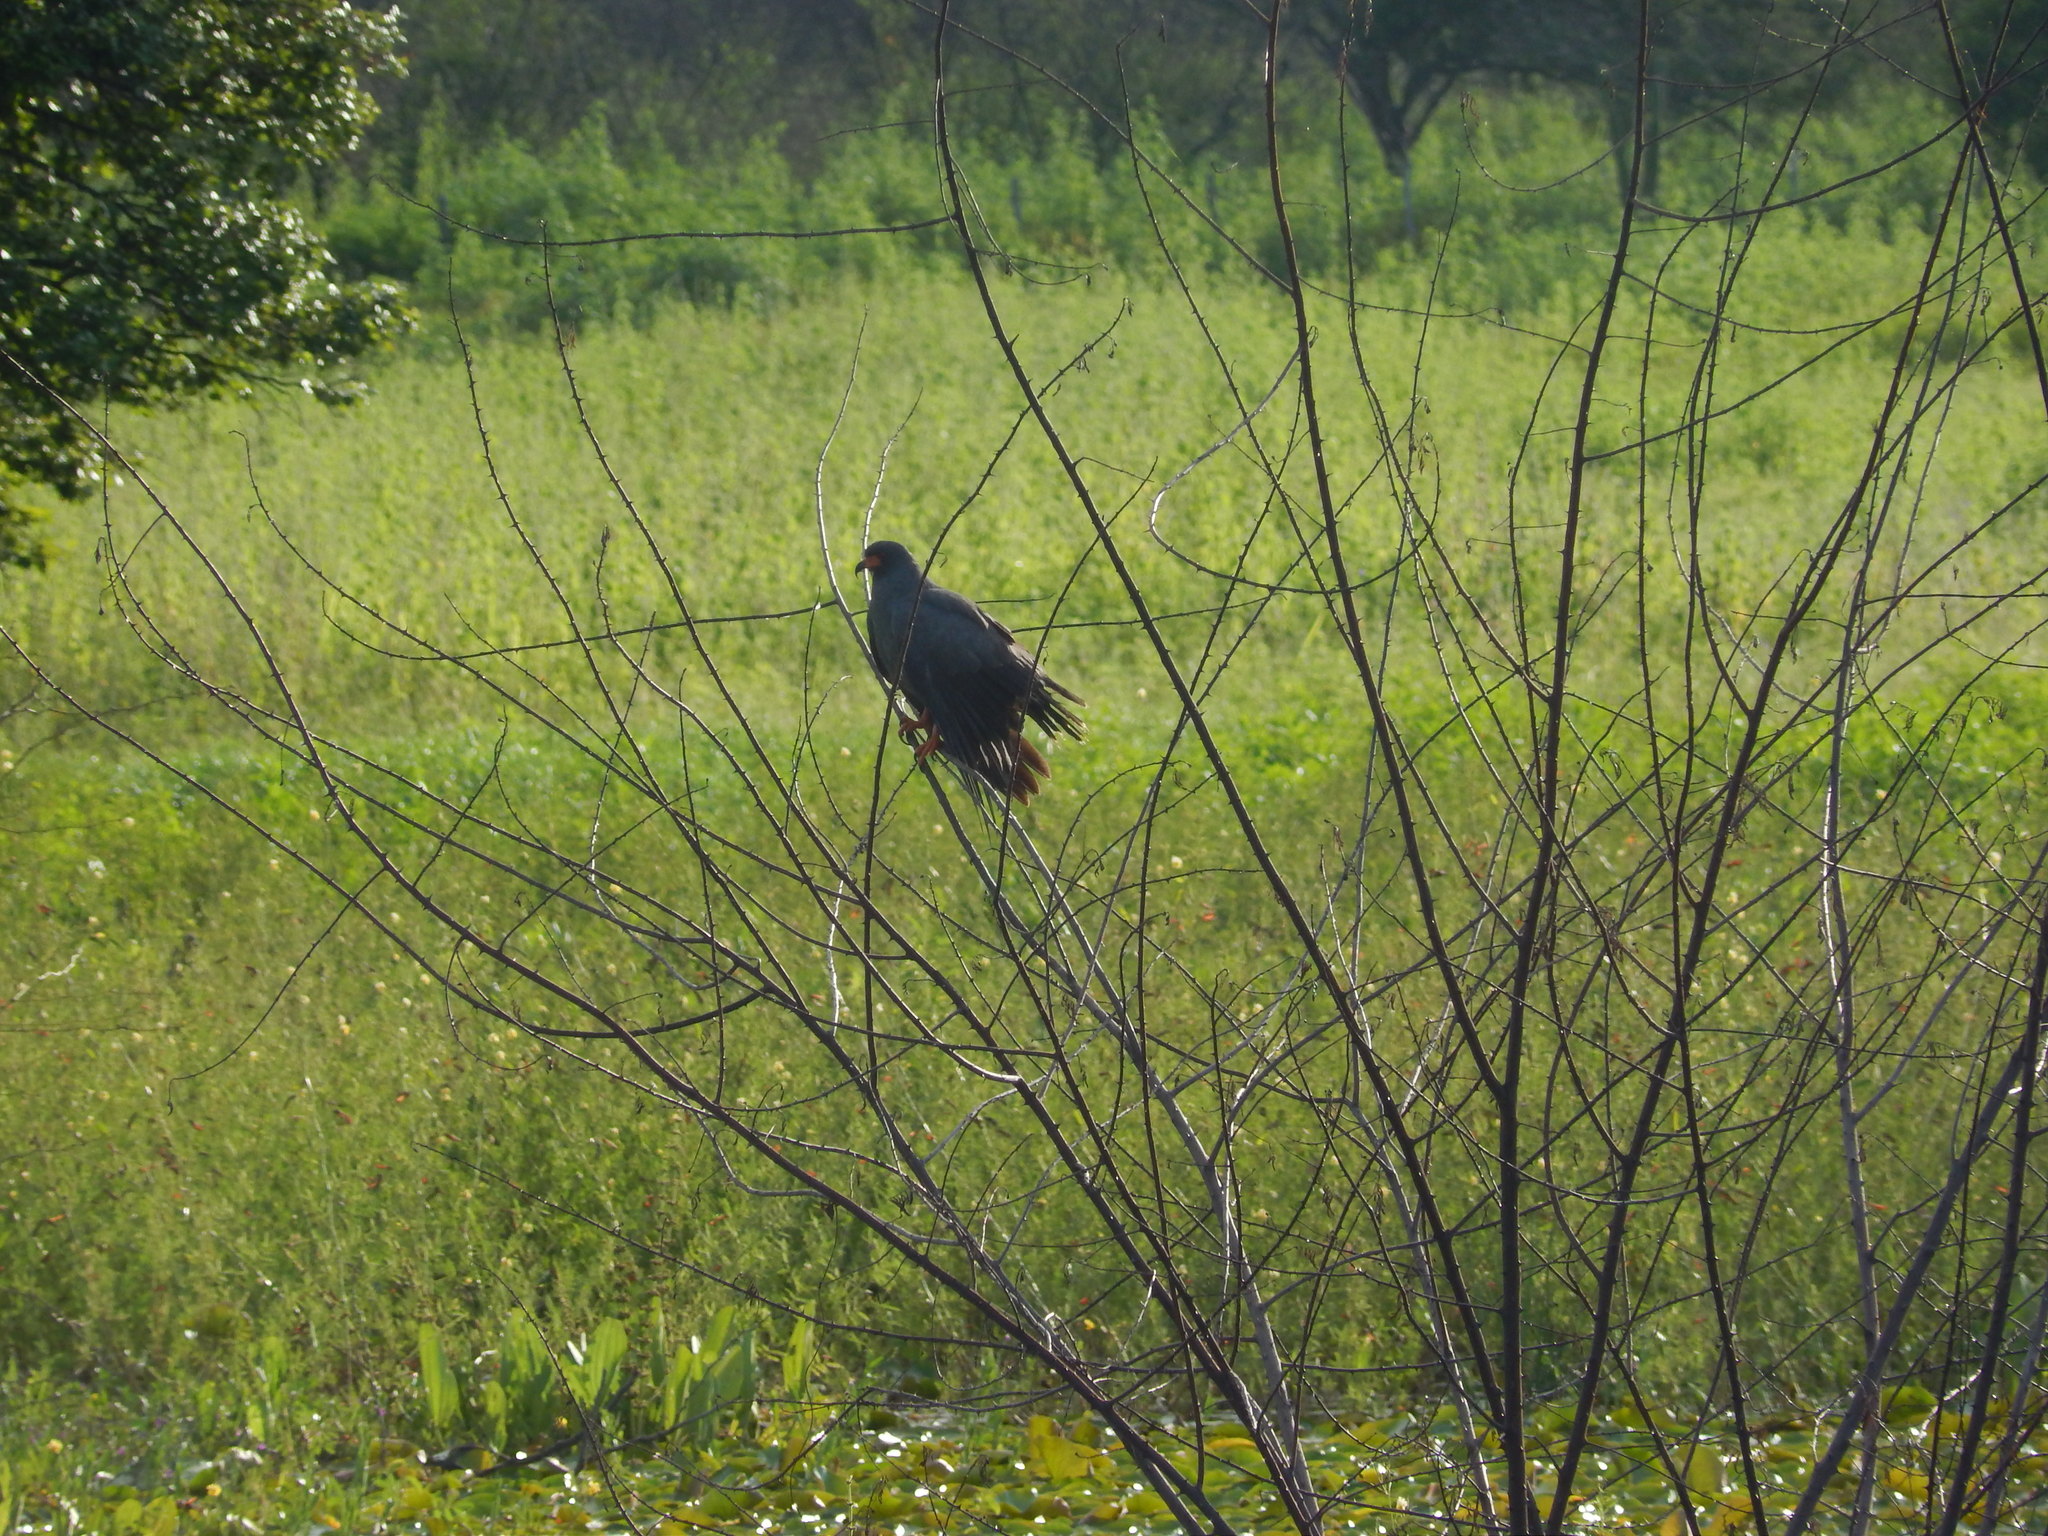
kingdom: Animalia
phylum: Chordata
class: Aves
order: Accipitriformes
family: Accipitridae
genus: Rostrhamus
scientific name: Rostrhamus sociabilis
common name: Snail kite
